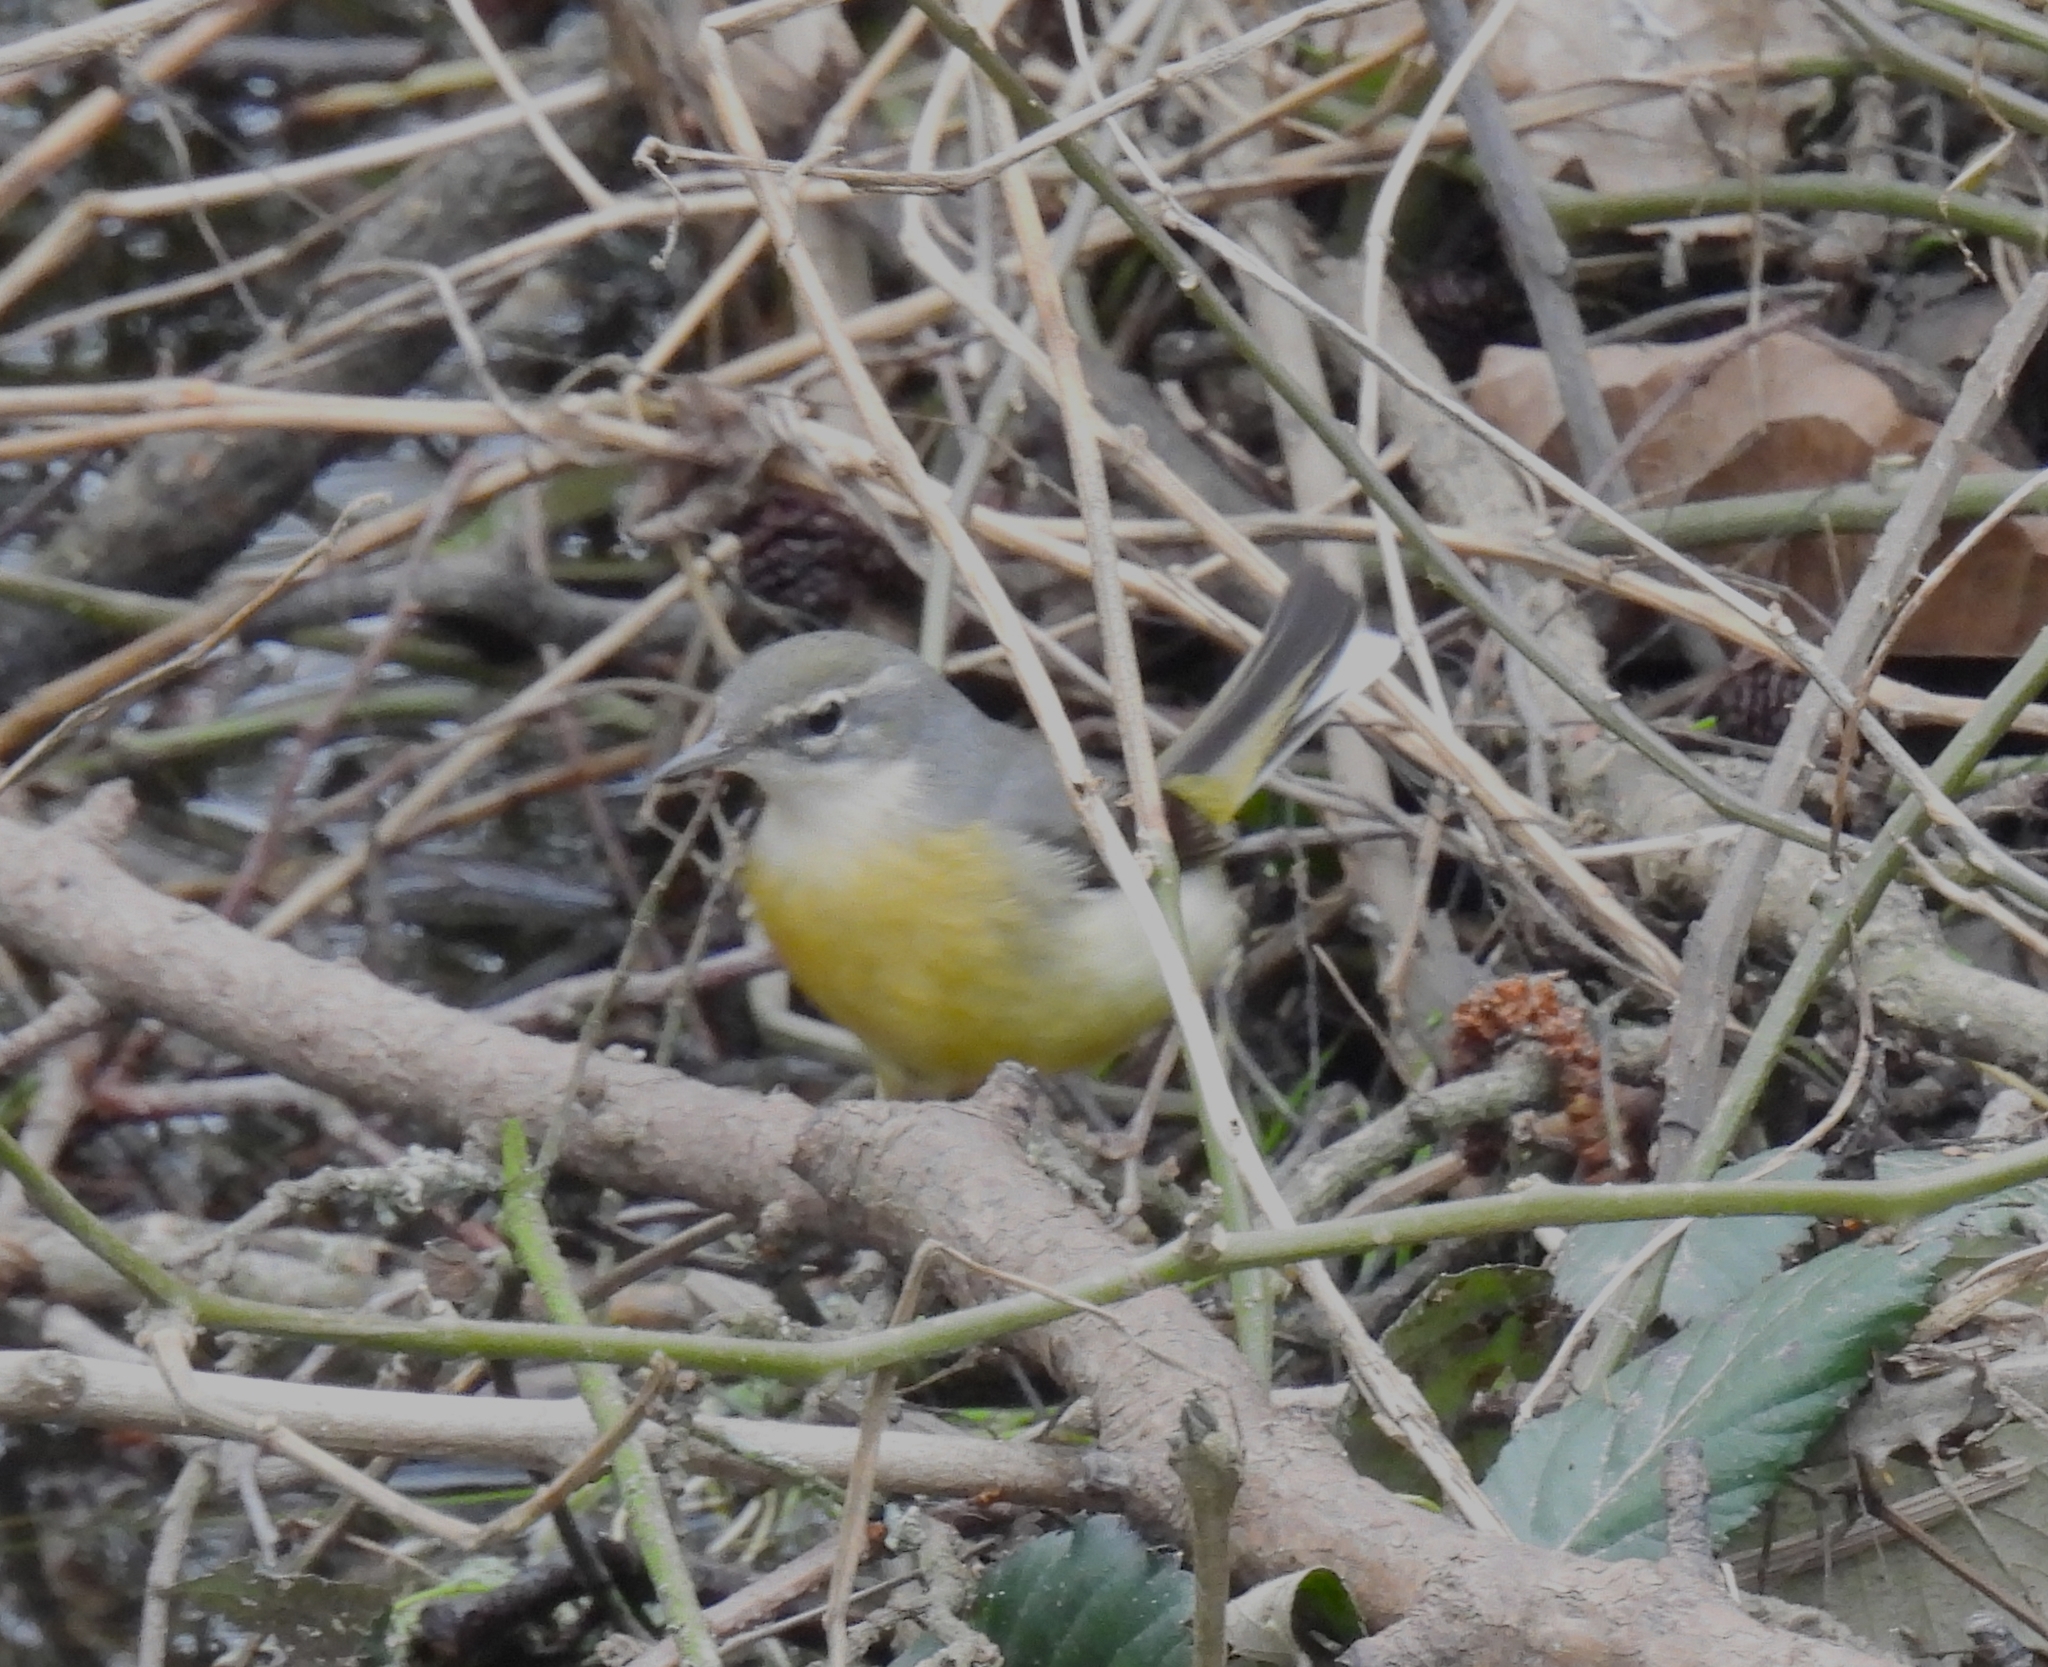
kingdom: Animalia
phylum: Chordata
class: Aves
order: Passeriformes
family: Motacillidae
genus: Motacilla
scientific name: Motacilla cinerea
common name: Grey wagtail
